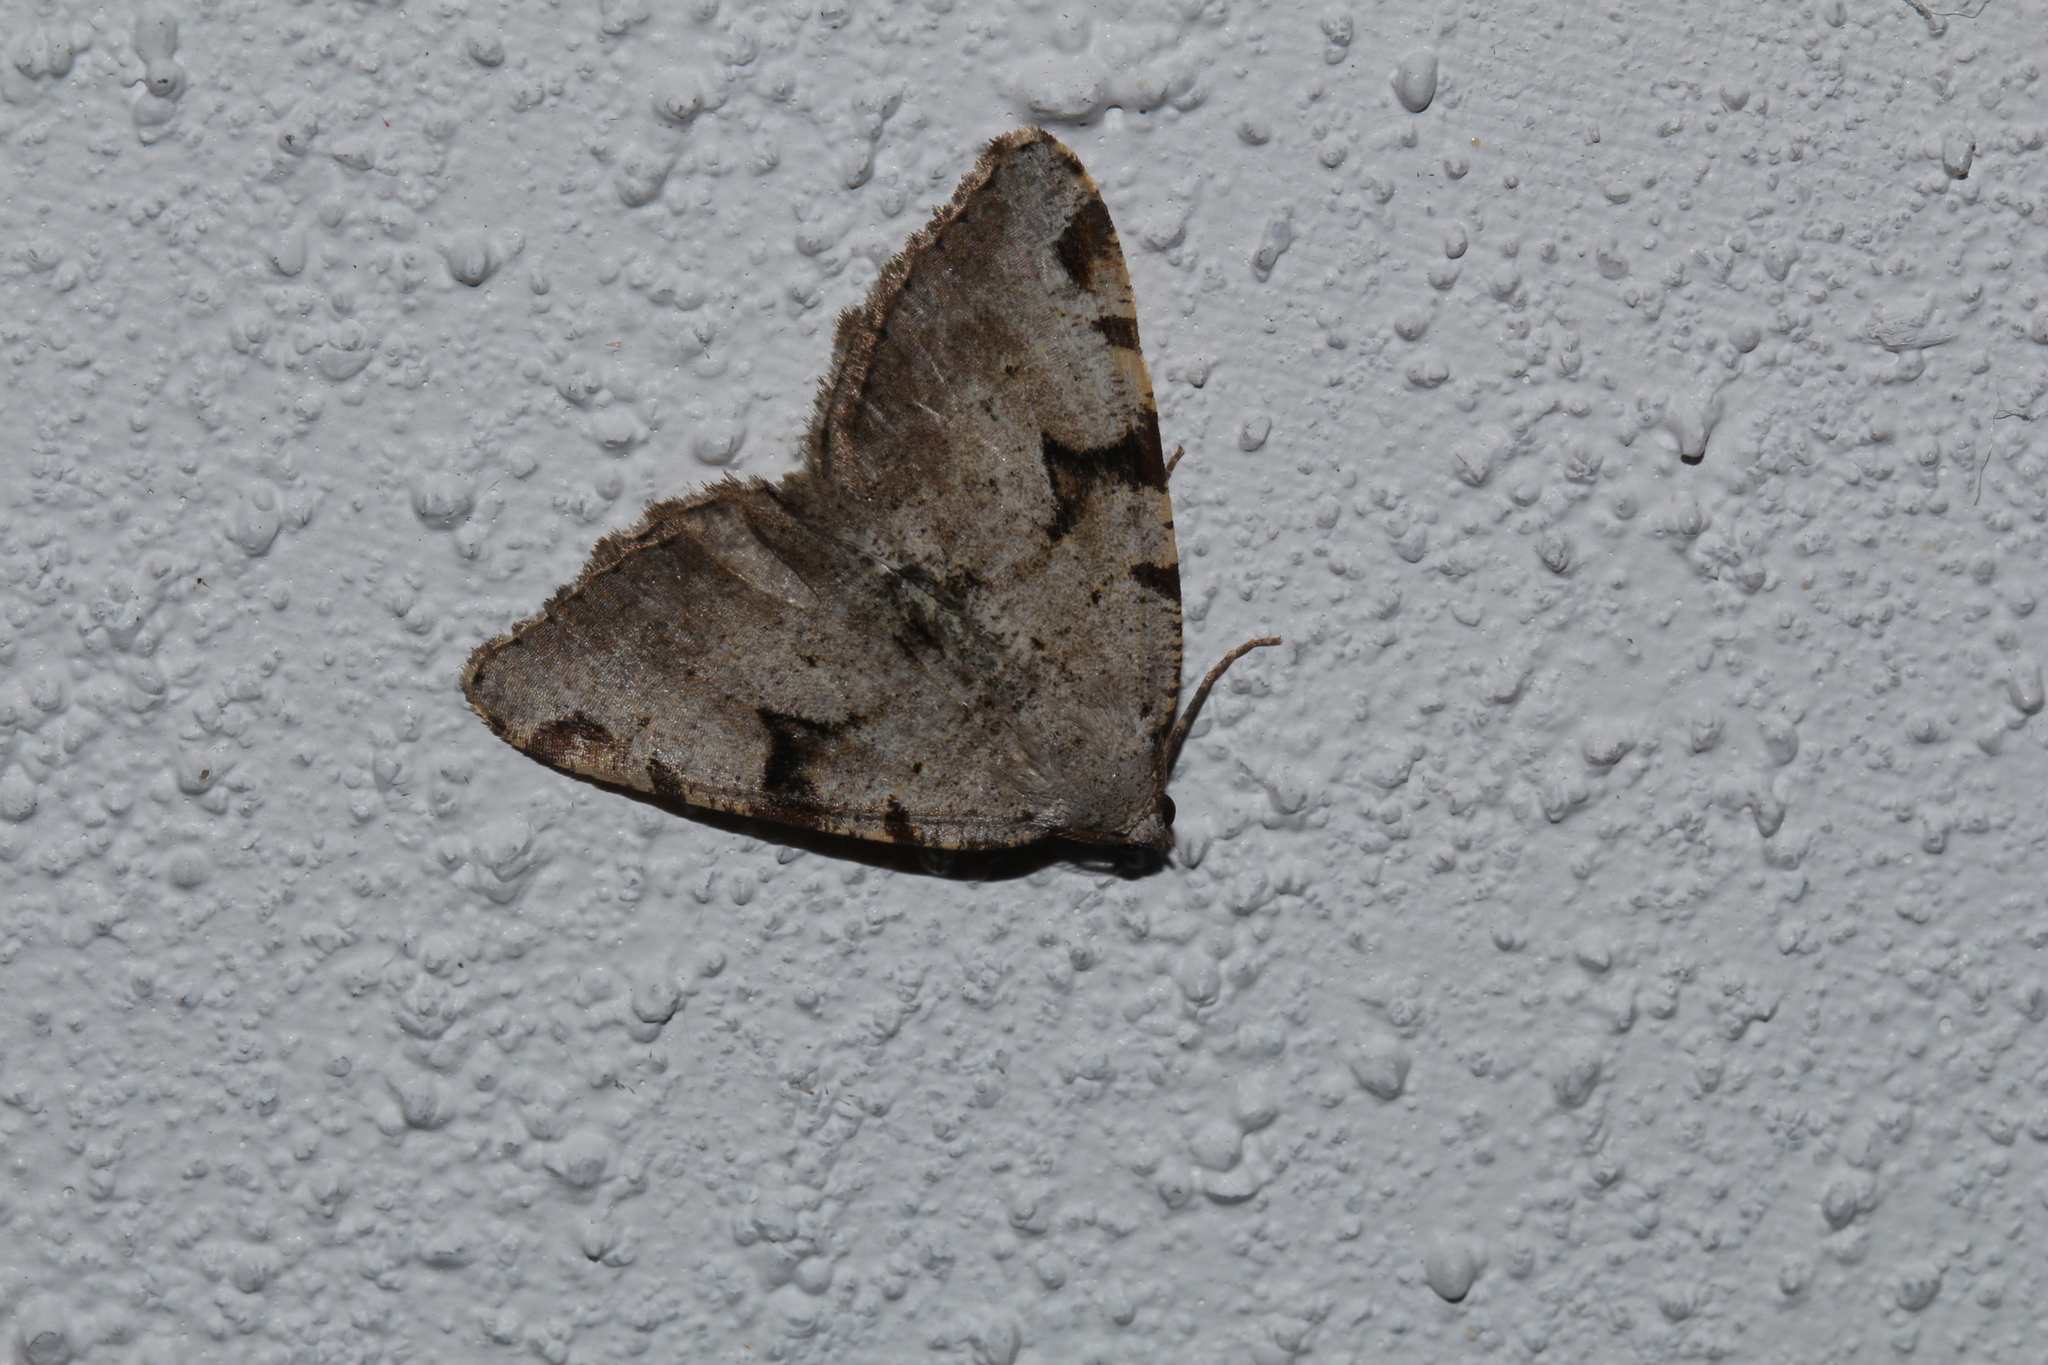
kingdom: Animalia
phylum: Arthropoda
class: Insecta
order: Lepidoptera
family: Geometridae
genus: Macaria
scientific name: Macaria wauaria
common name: V-moth
